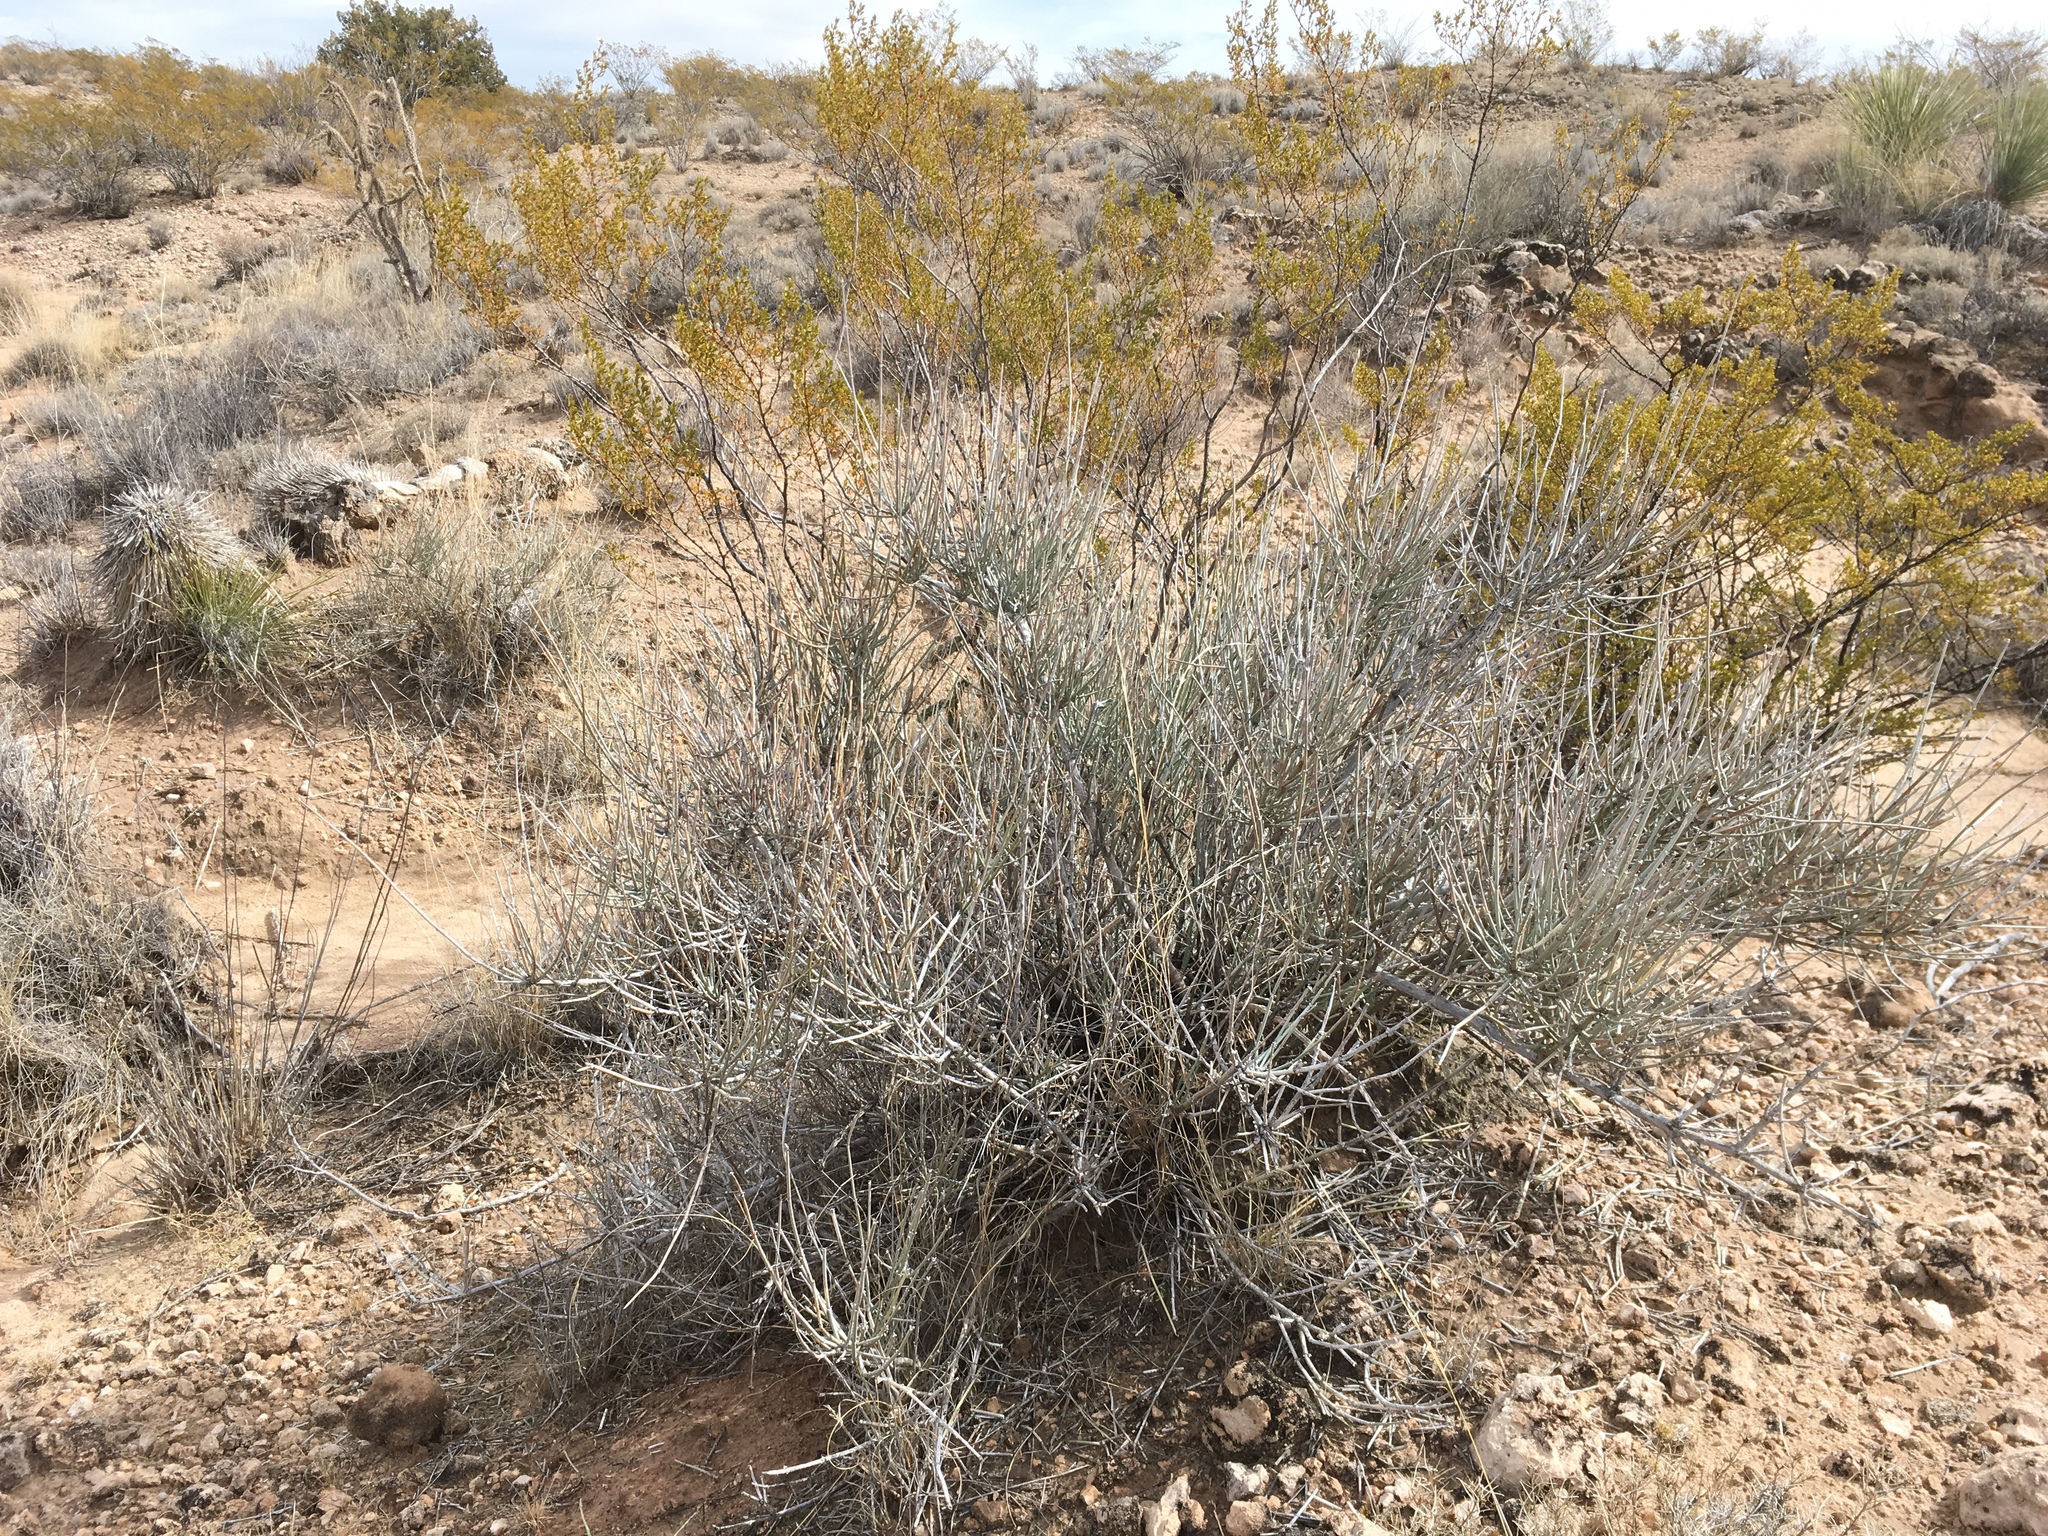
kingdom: Plantae
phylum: Tracheophyta
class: Gnetopsida
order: Ephedrales
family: Ephedraceae
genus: Ephedra
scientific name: Ephedra torreyana
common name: Torrey ephedra
